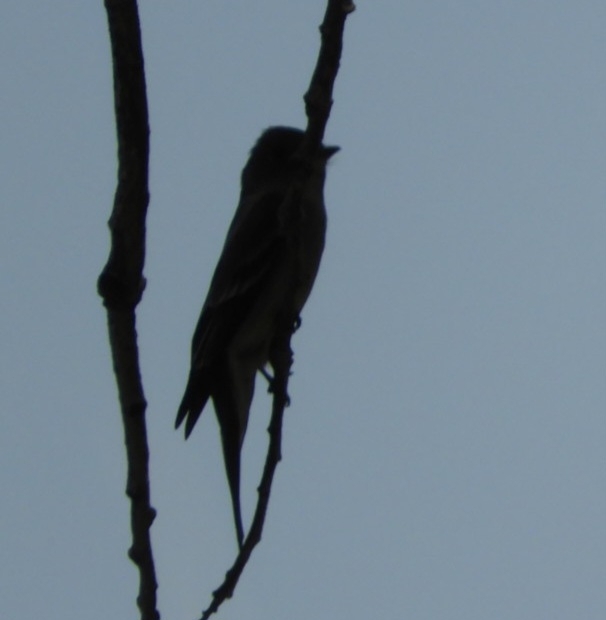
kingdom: Animalia
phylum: Chordata
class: Aves
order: Passeriformes
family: Tyrannidae
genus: Contopus
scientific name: Contopus sordidulus
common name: Western wood-pewee
